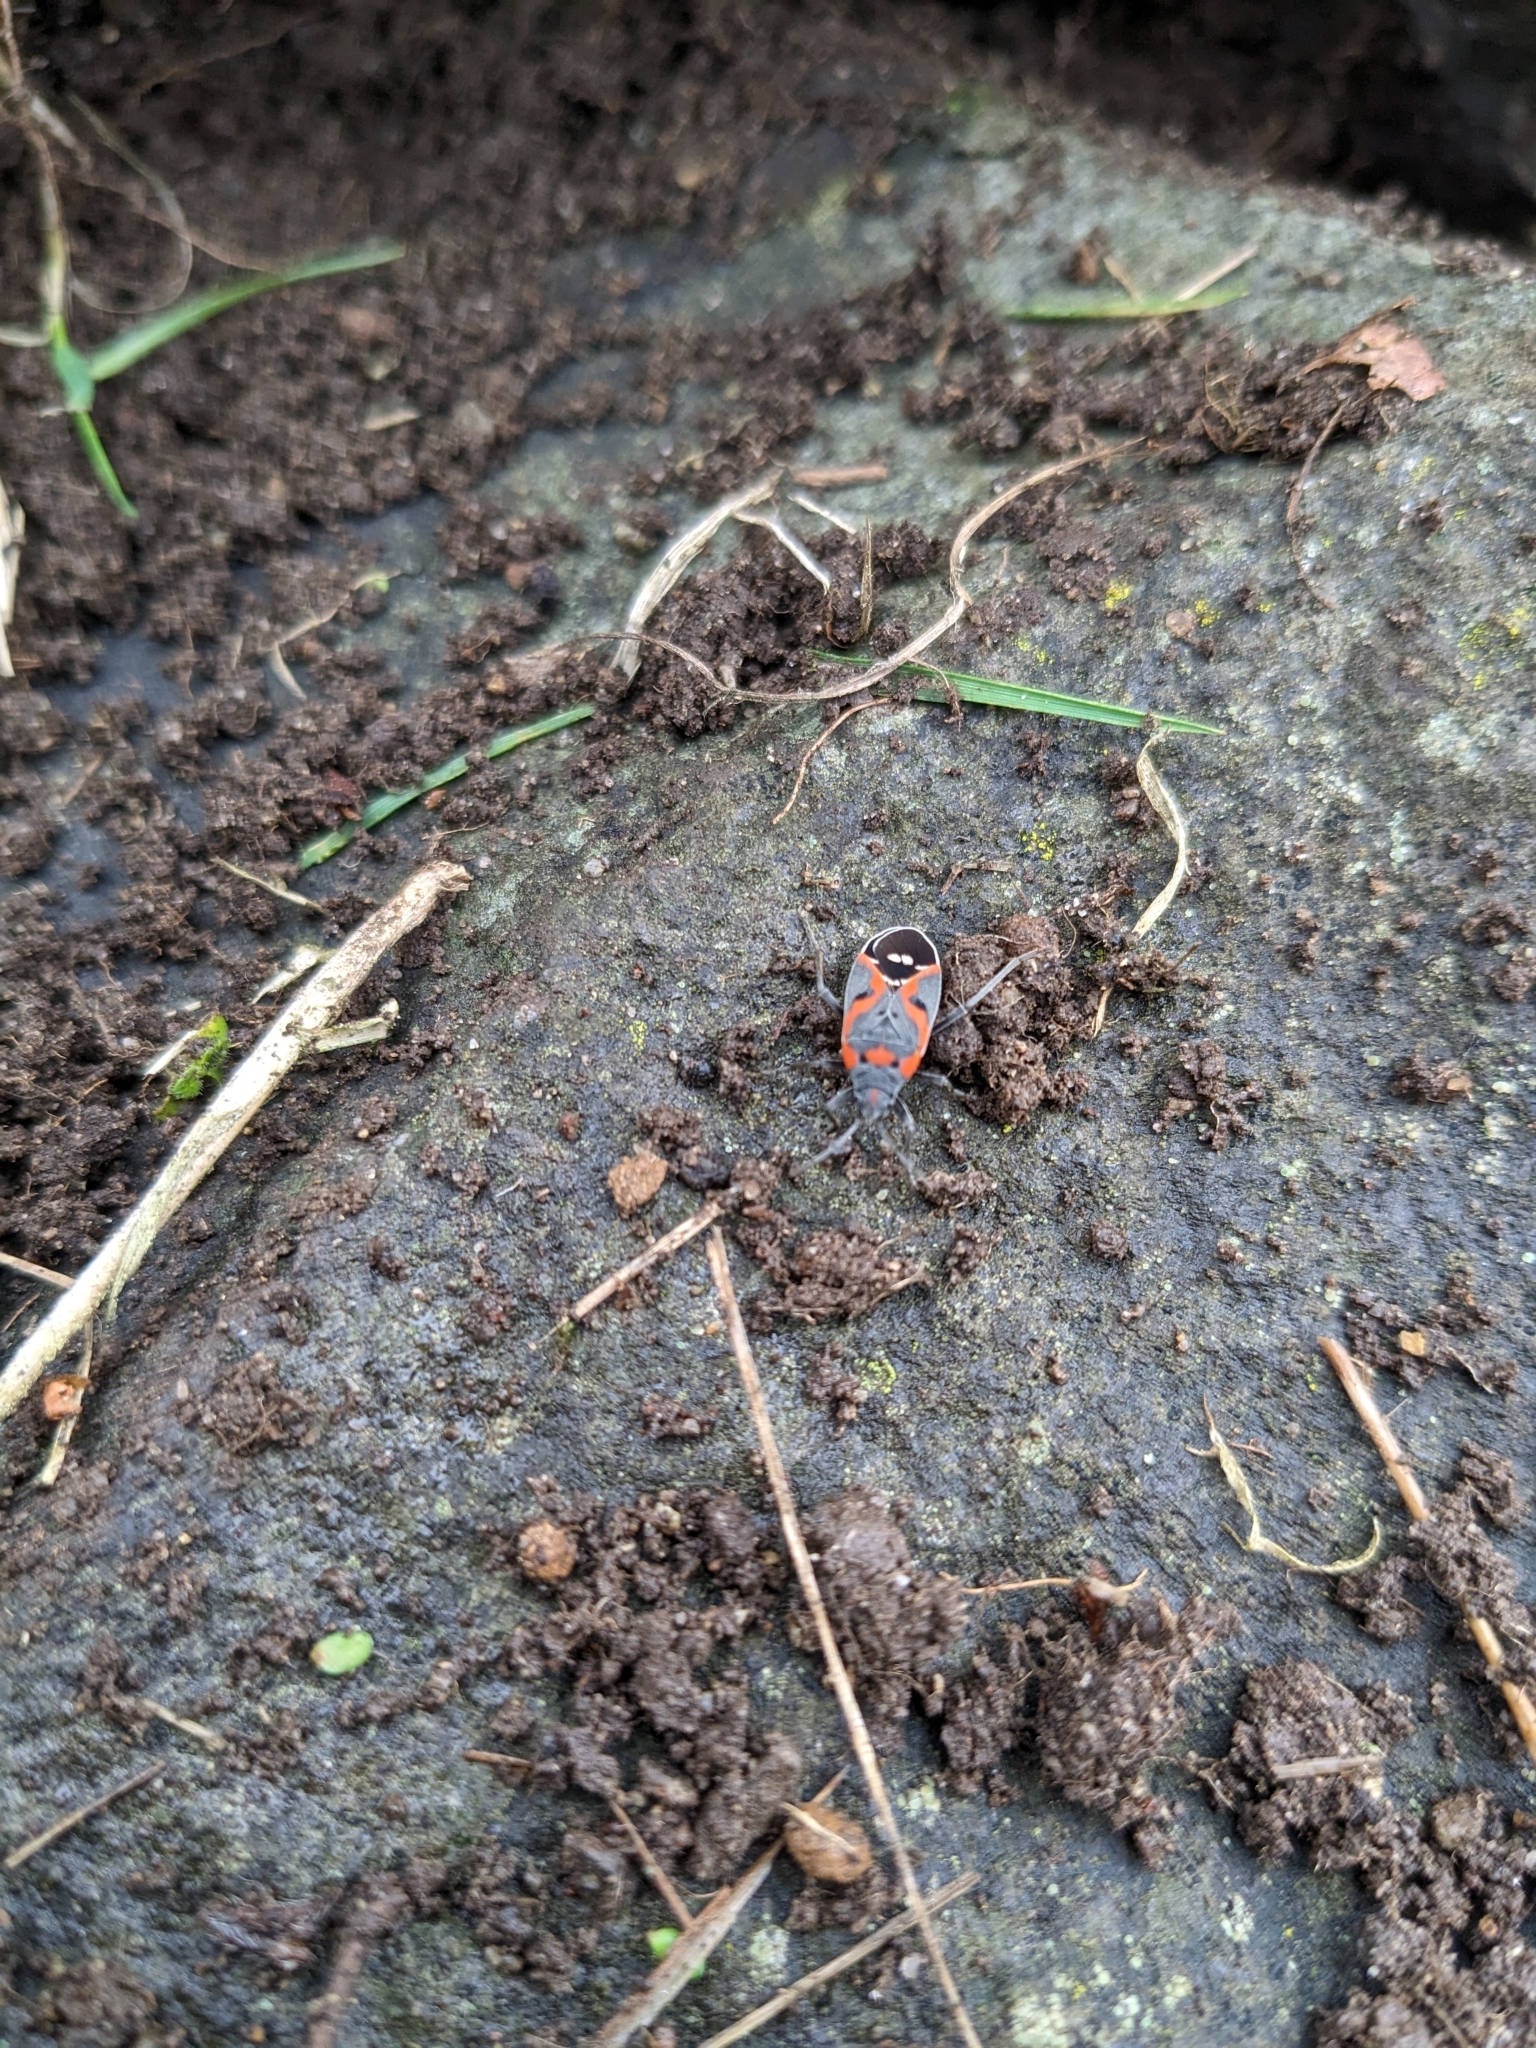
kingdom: Animalia
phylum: Arthropoda
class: Insecta
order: Hemiptera
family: Lygaeidae
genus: Lygaeus
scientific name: Lygaeus kalmii
